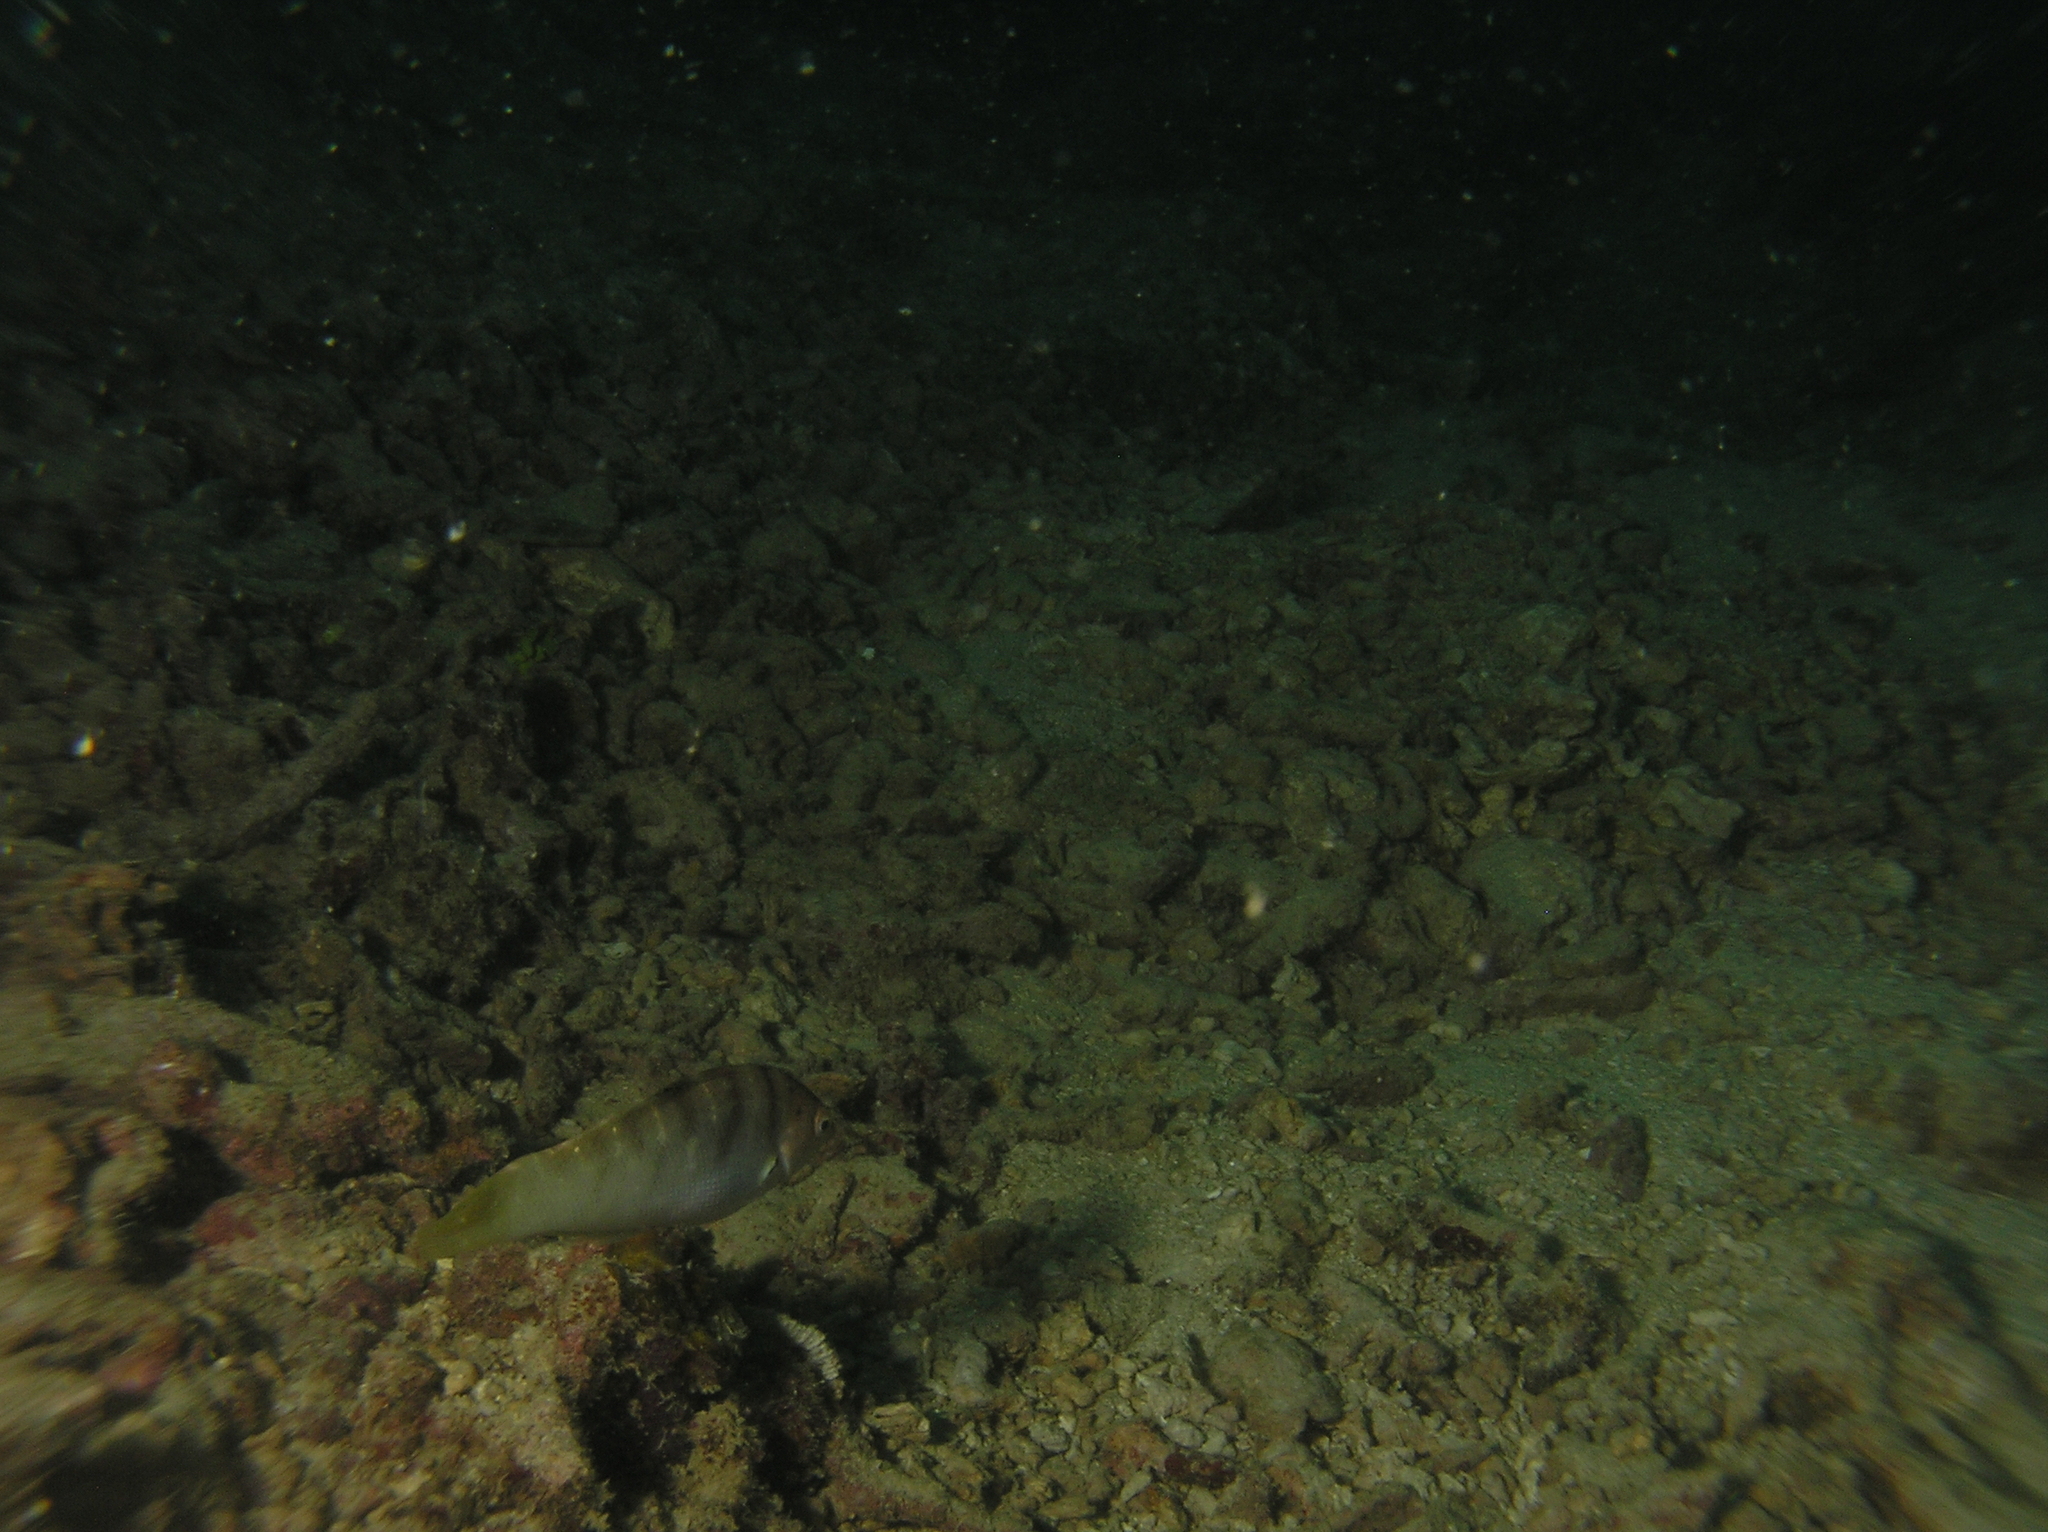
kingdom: Animalia
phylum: Chordata
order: Perciformes
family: Labridae
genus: Coris
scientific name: Coris batuensis
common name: Batu coris
